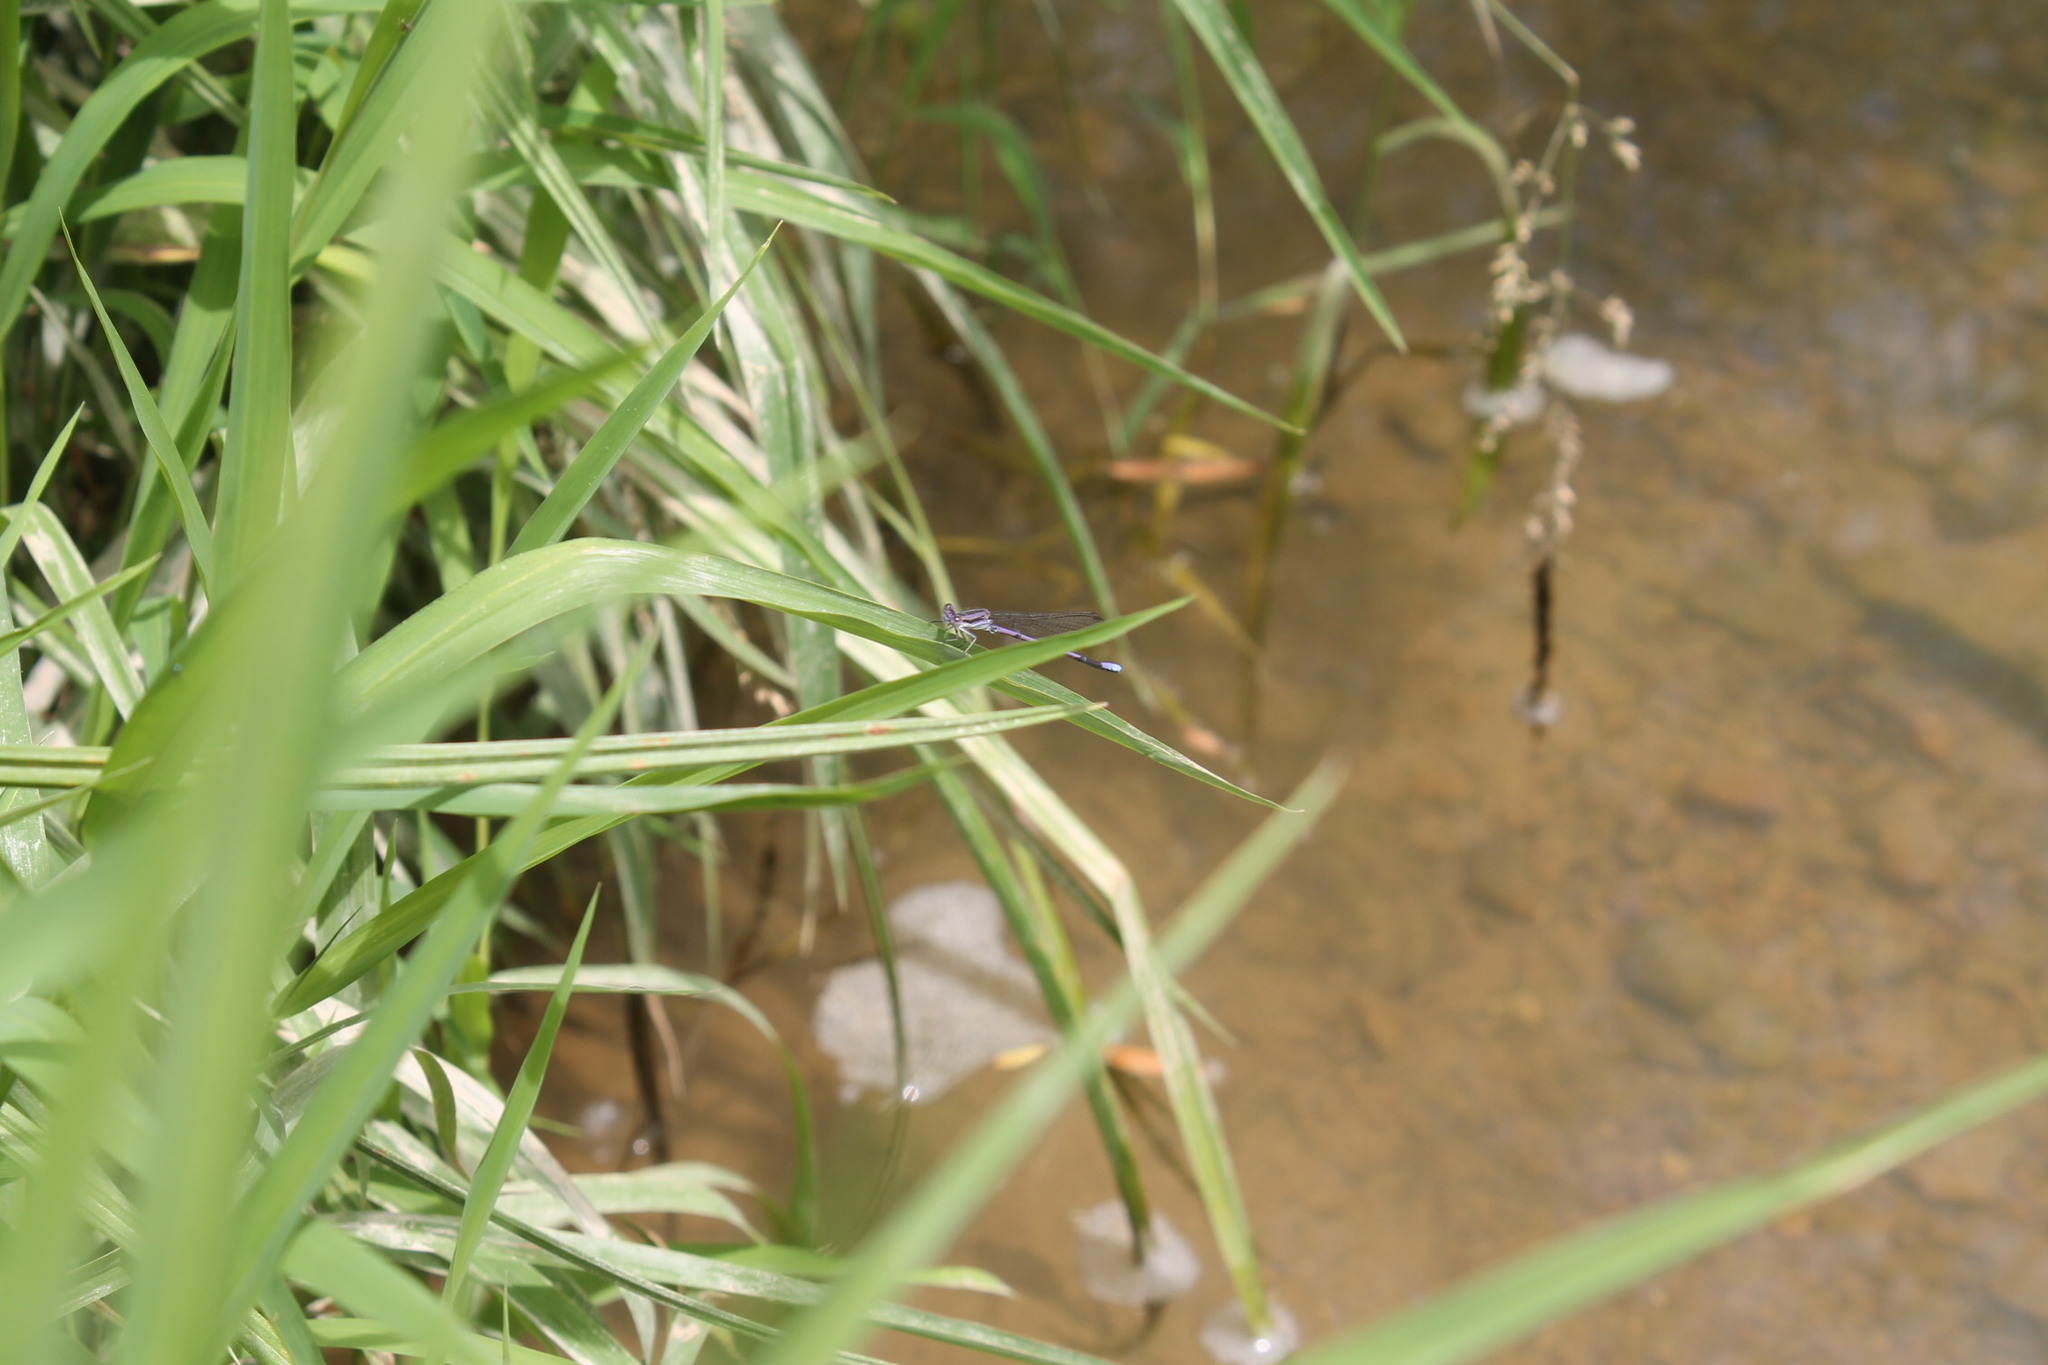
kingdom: Animalia
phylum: Arthropoda
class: Insecta
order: Odonata
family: Coenagrionidae
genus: Argia
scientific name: Argia fumipennis
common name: Variable dancer
